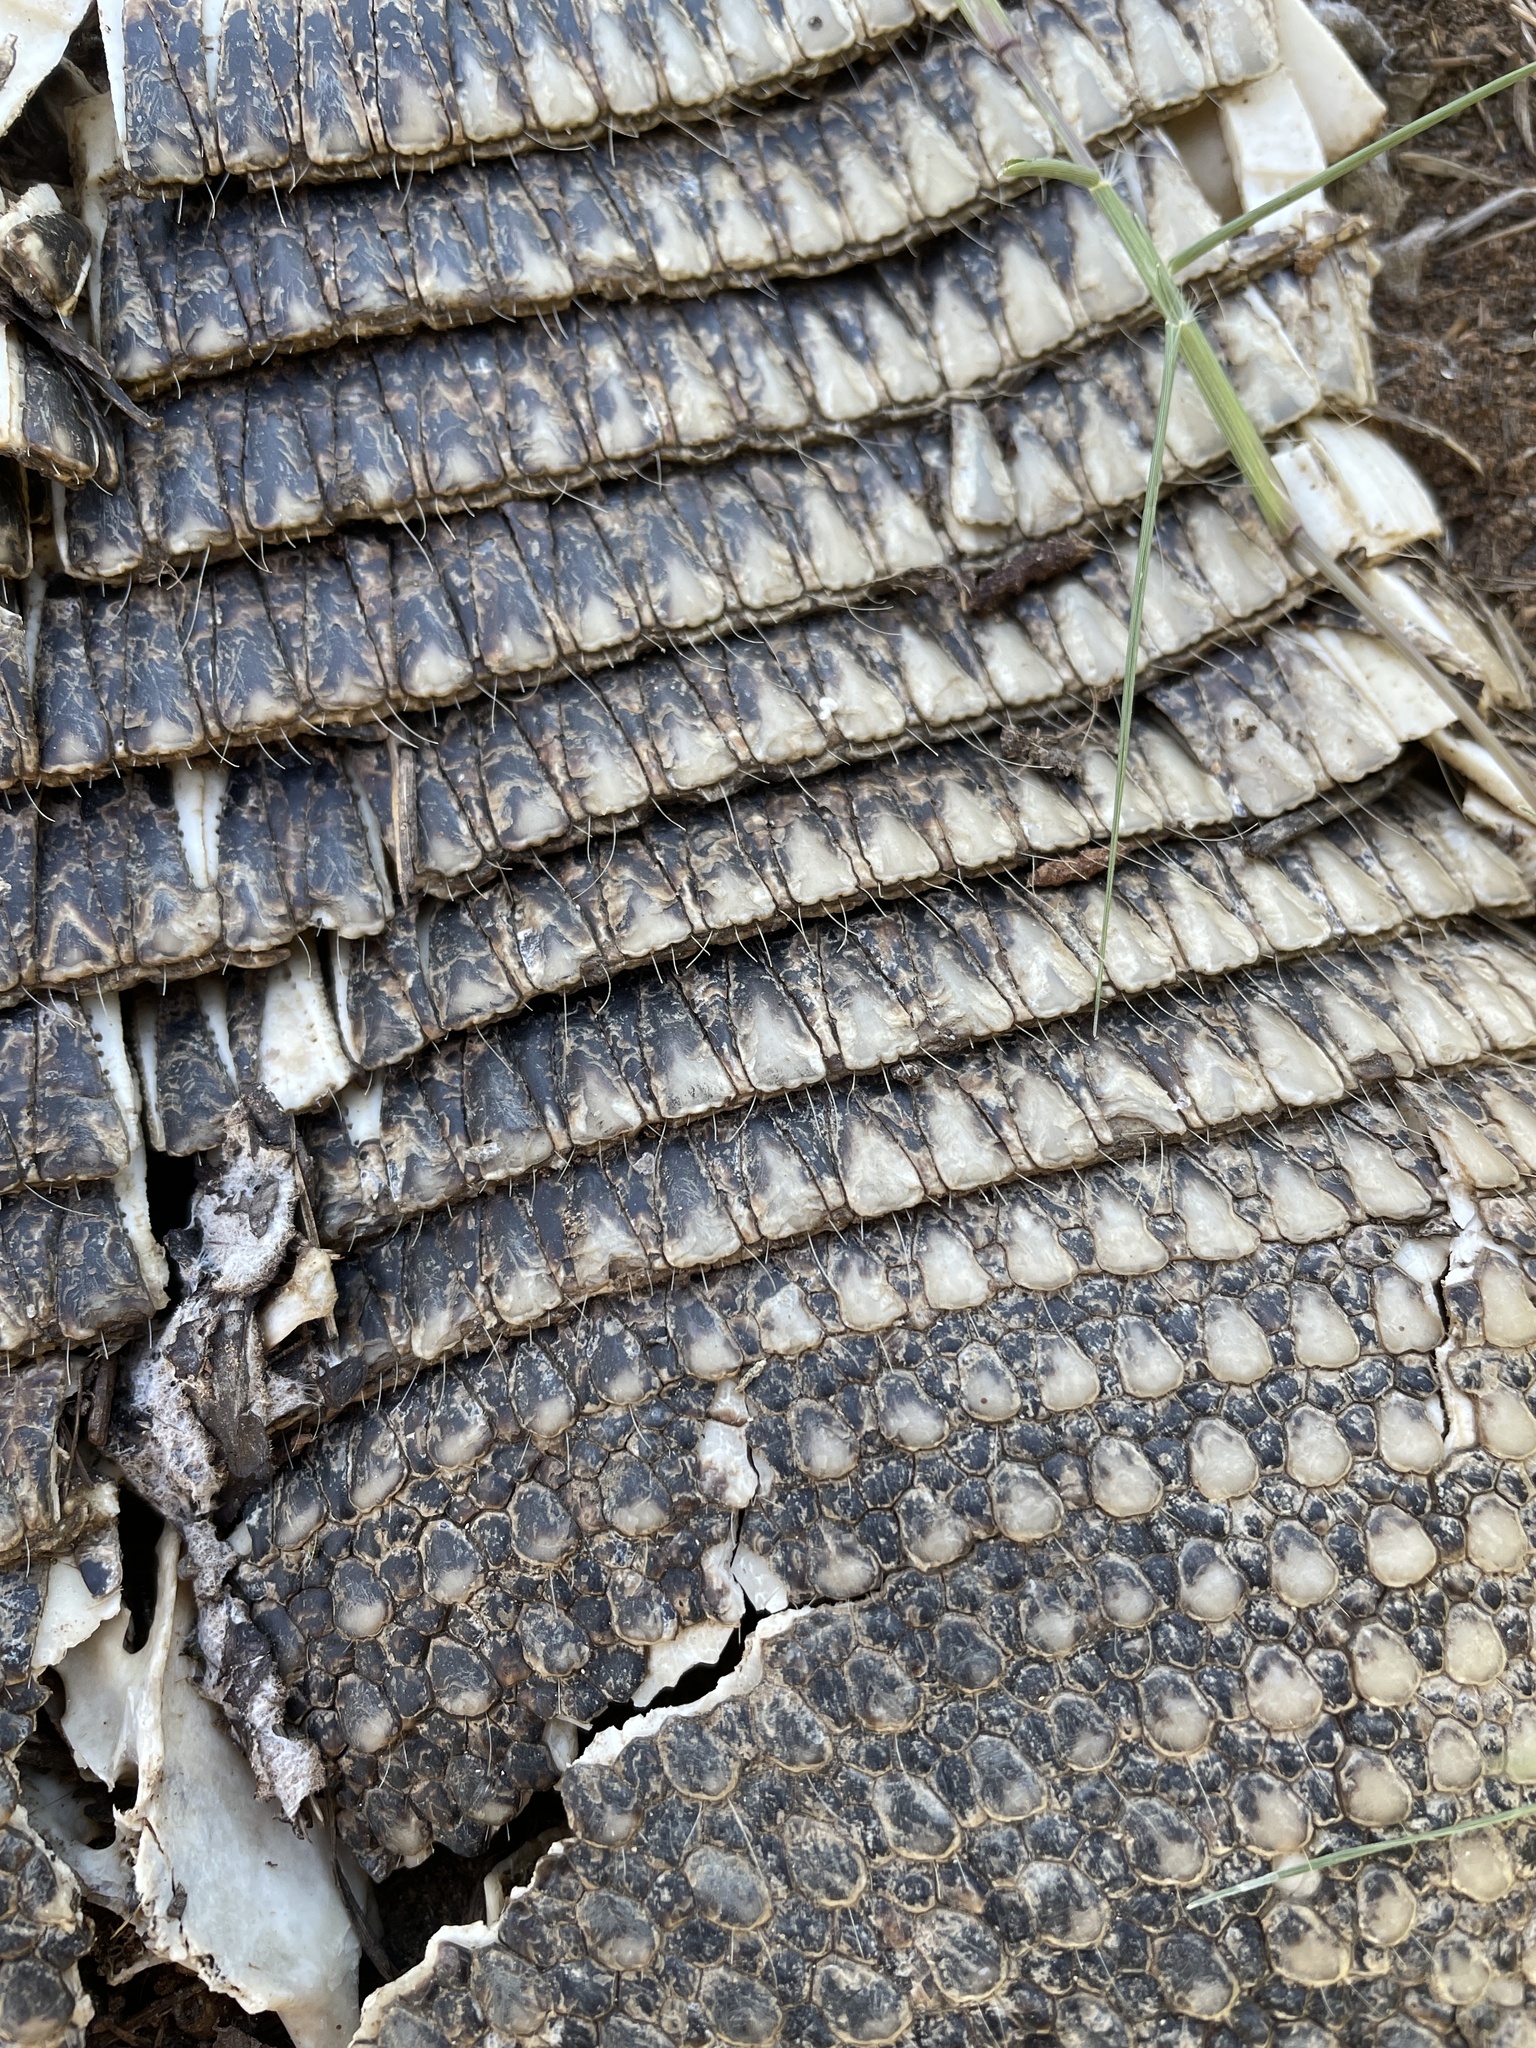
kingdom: Animalia
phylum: Chordata
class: Mammalia
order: Cingulata
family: Dasypodidae
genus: Dasypus
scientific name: Dasypus novemcinctus
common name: Nine-banded armadillo
